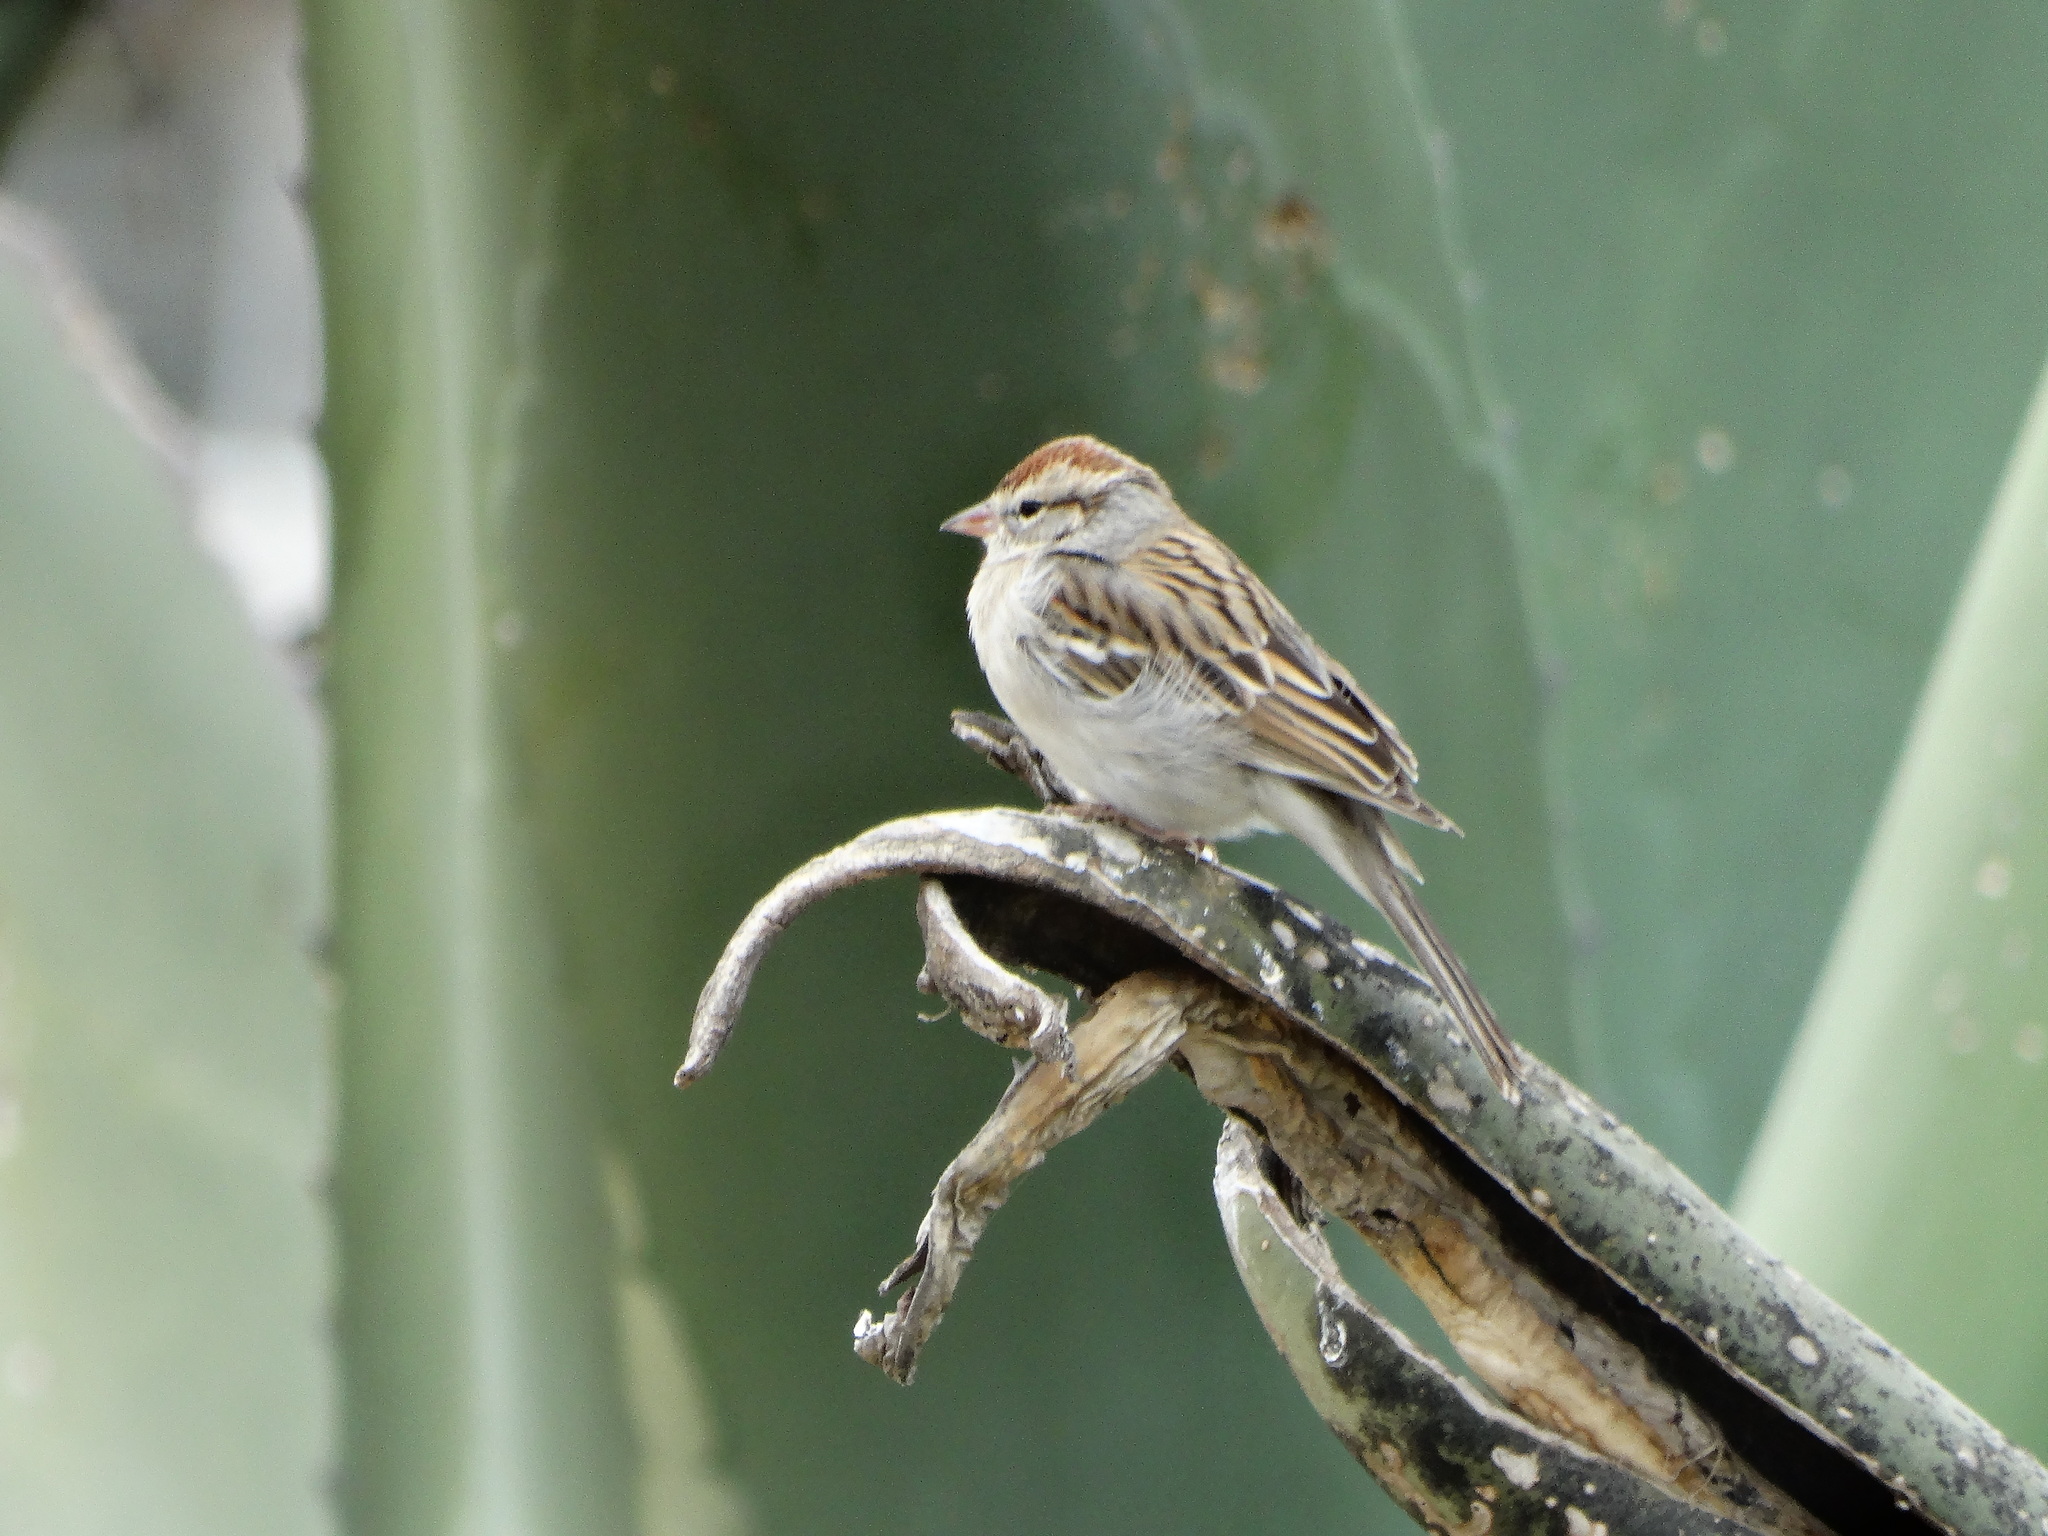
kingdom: Animalia
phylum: Chordata
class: Aves
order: Passeriformes
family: Passerellidae
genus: Spizella
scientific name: Spizella passerina
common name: Chipping sparrow
